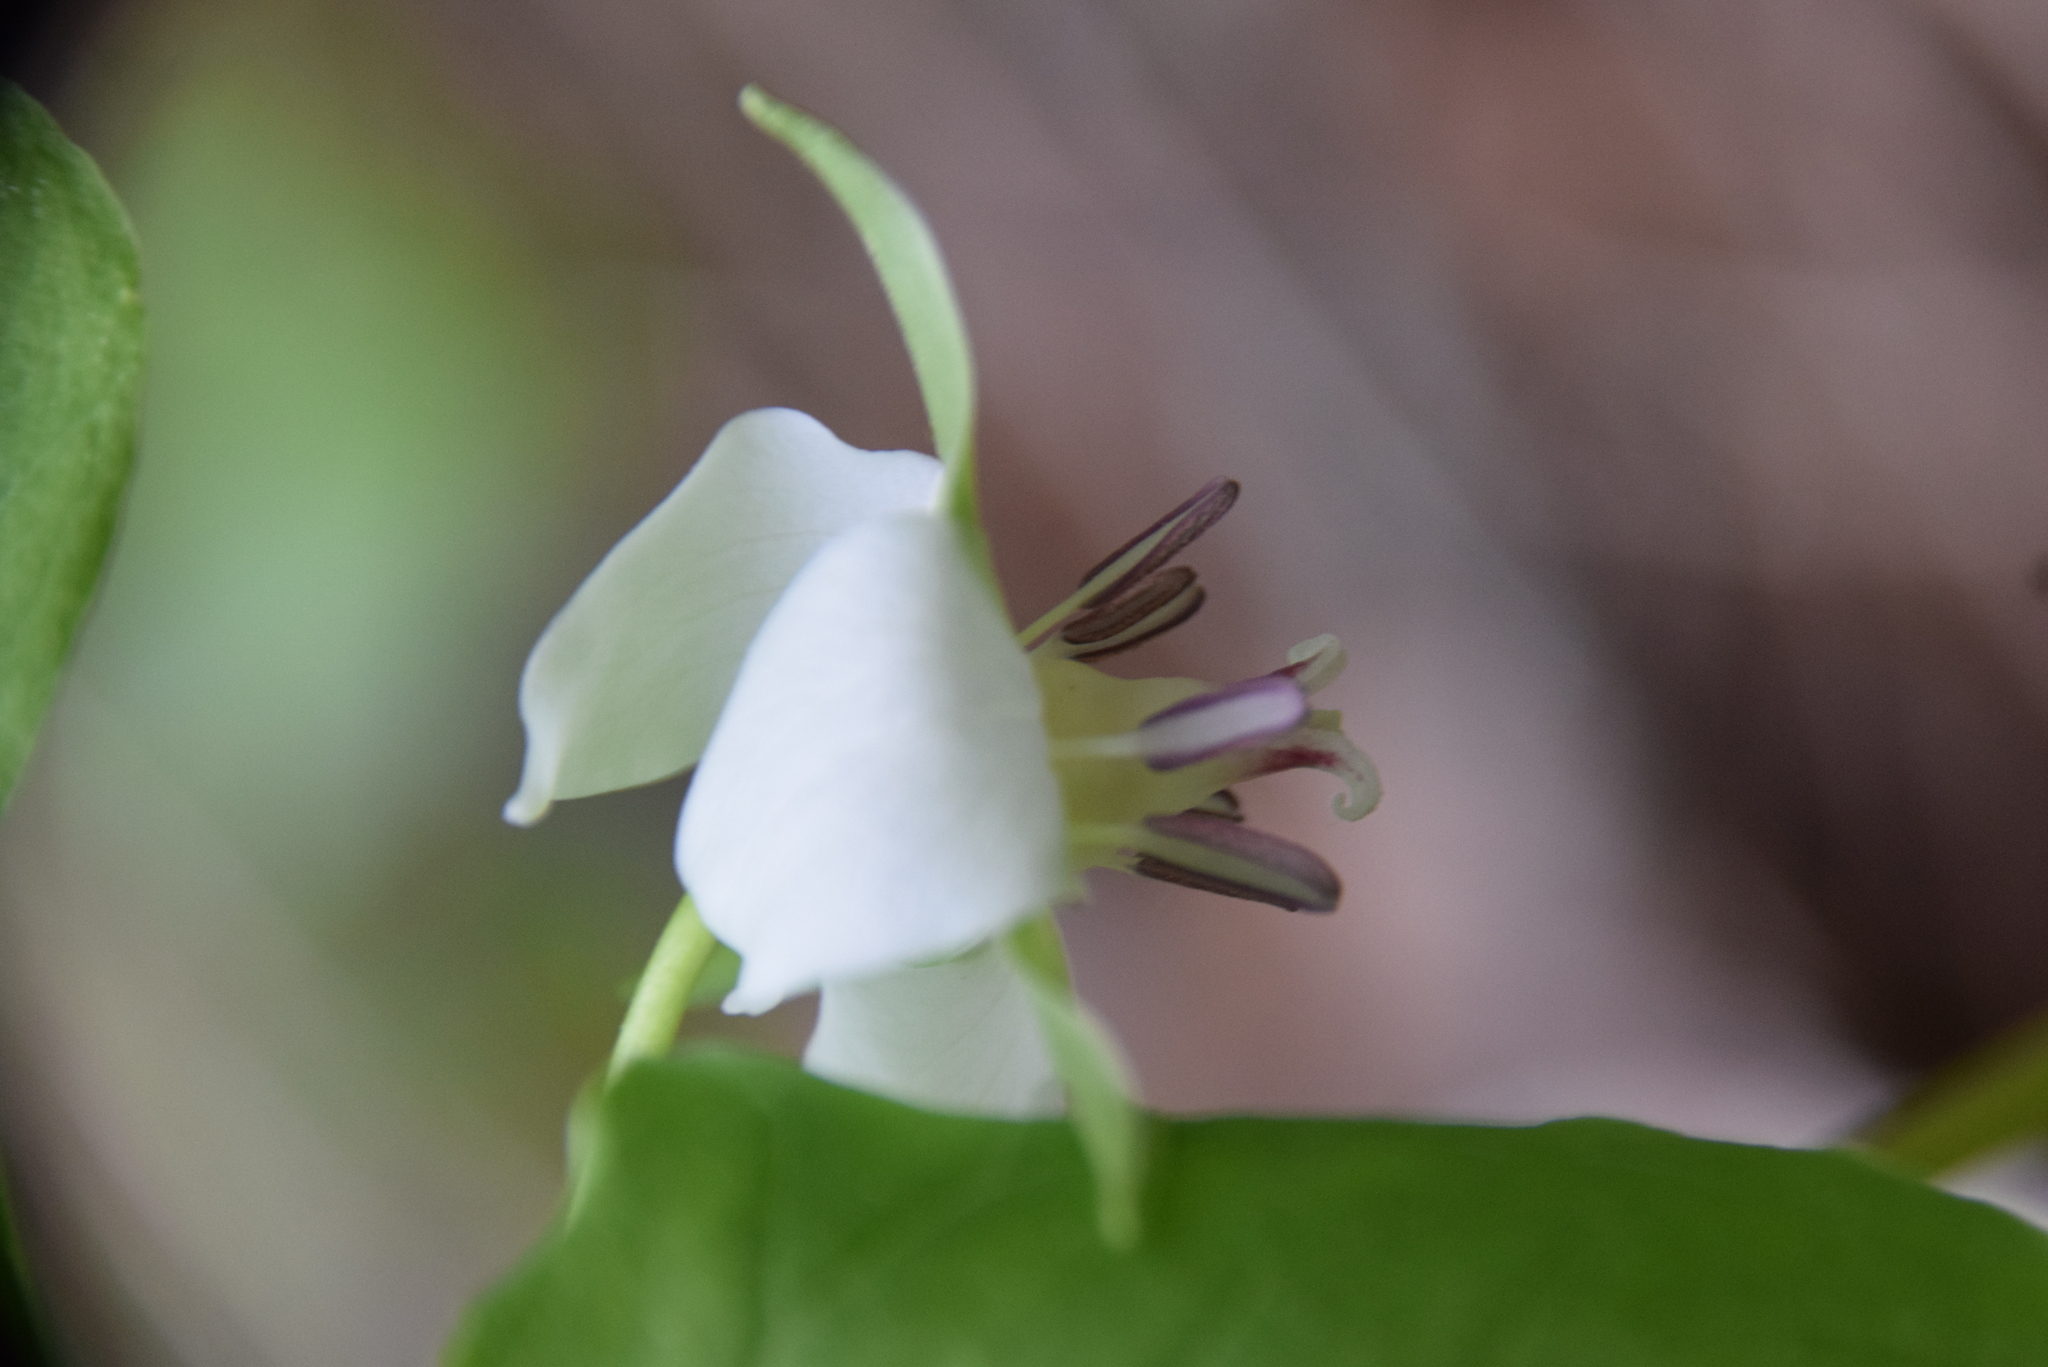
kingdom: Plantae
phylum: Tracheophyta
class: Liliopsida
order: Liliales
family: Melanthiaceae
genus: Trillium
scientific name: Trillium cernuum
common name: Nodding trillium
